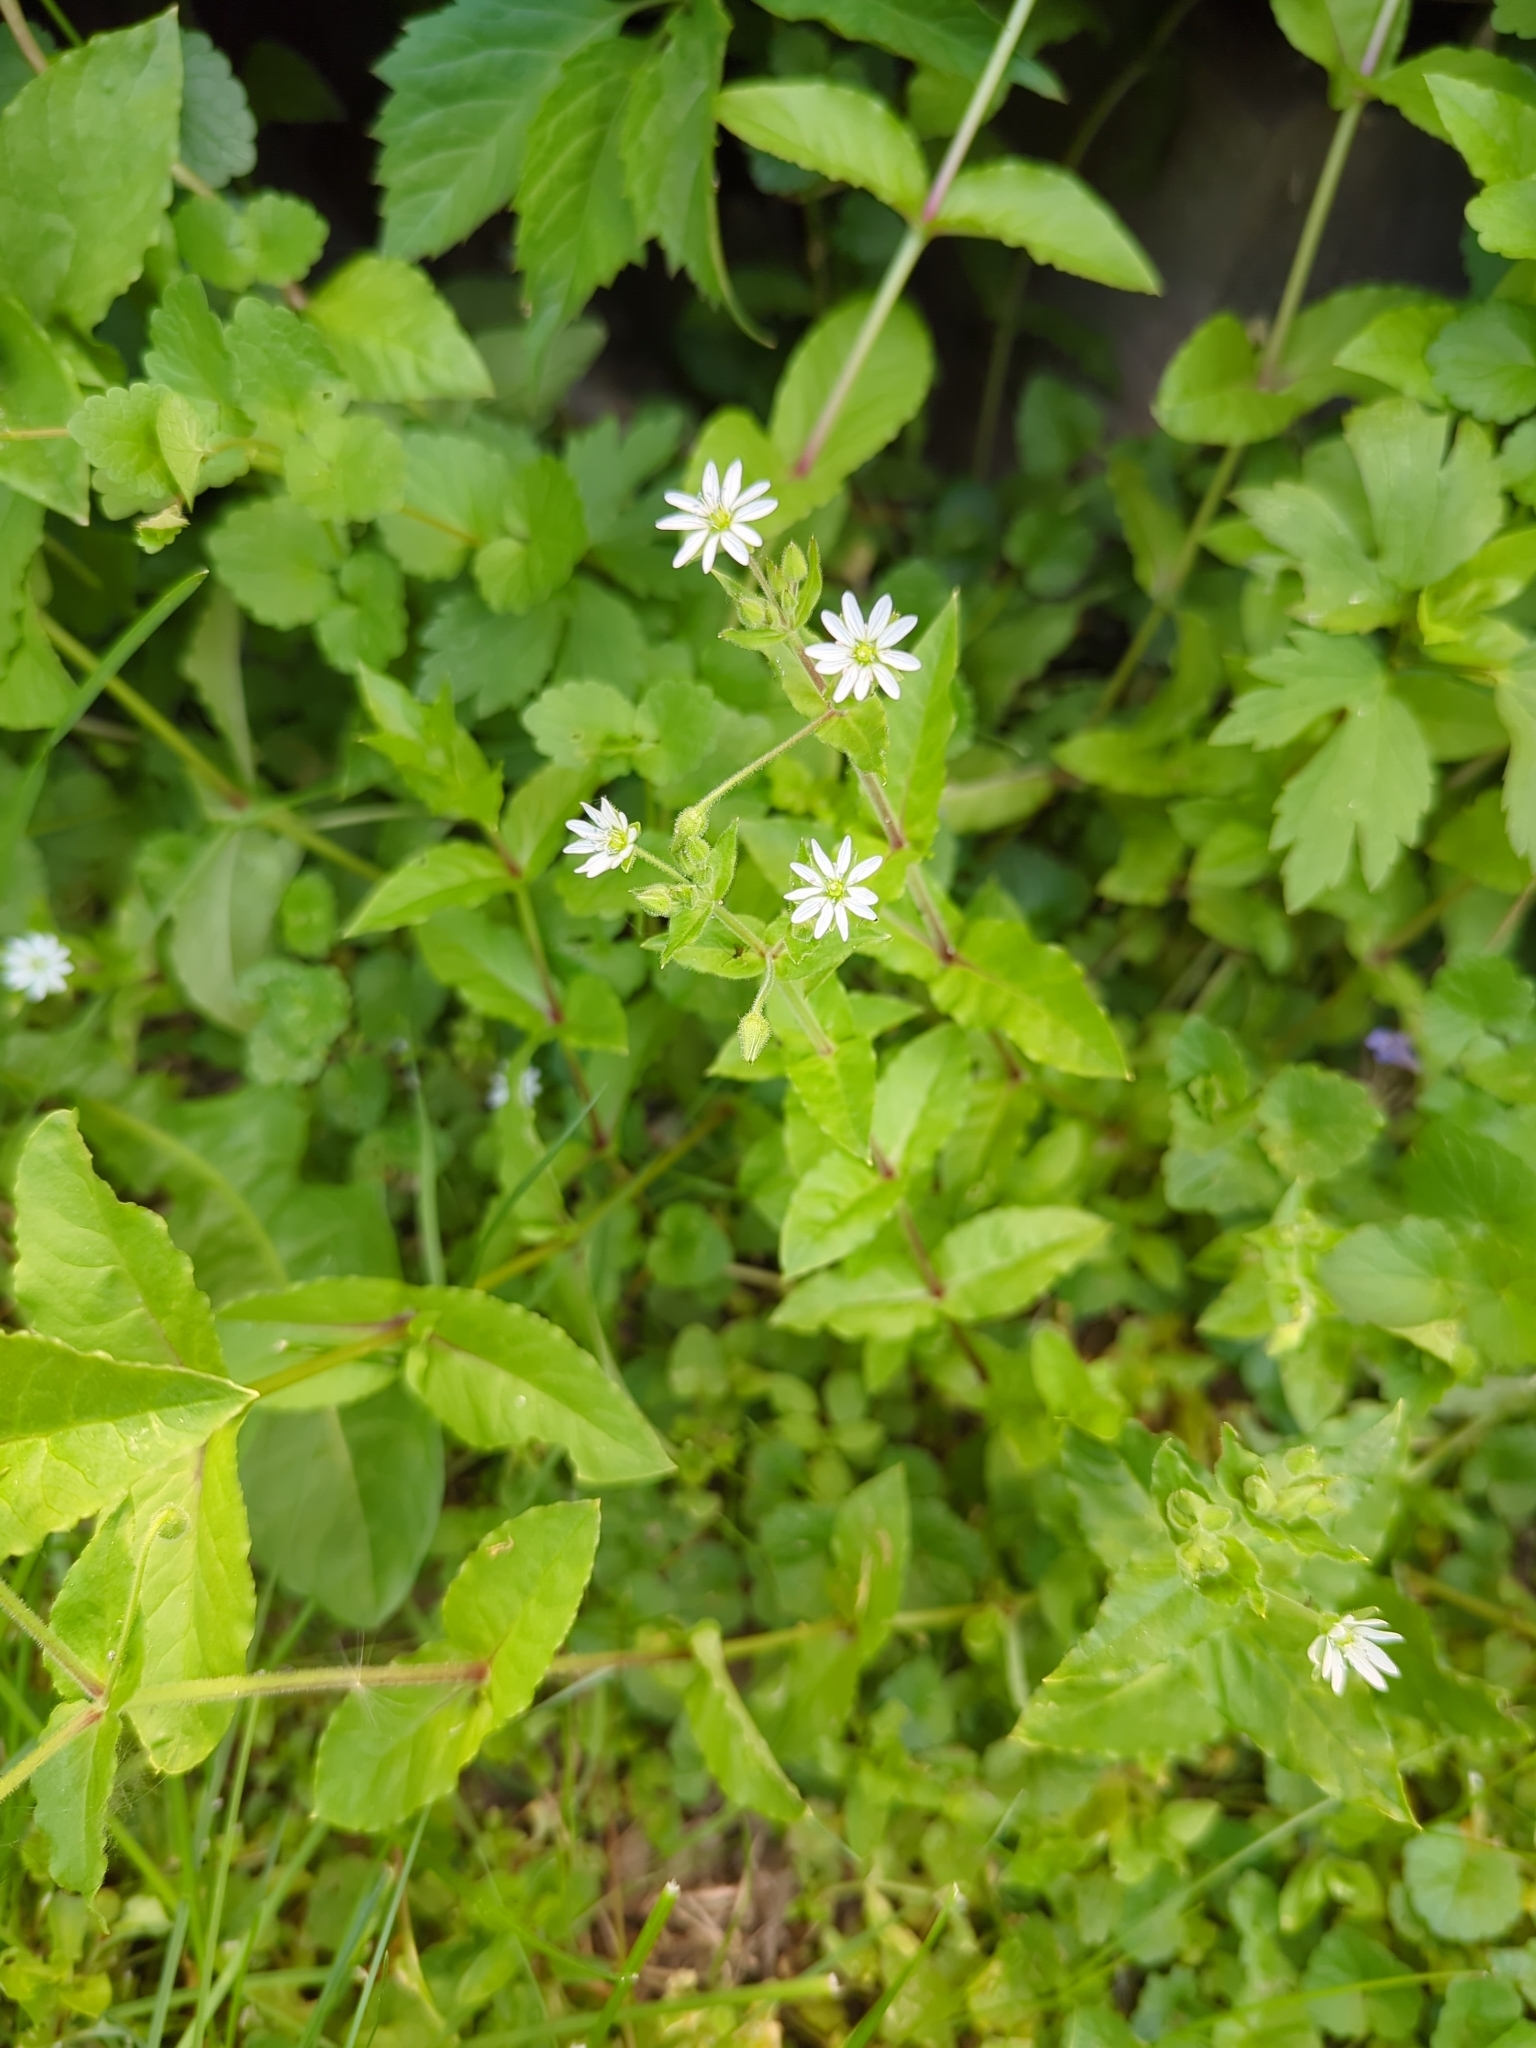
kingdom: Plantae
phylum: Tracheophyta
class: Magnoliopsida
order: Caryophyllales
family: Caryophyllaceae
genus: Stellaria
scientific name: Stellaria aquatica
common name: Water chickweed
